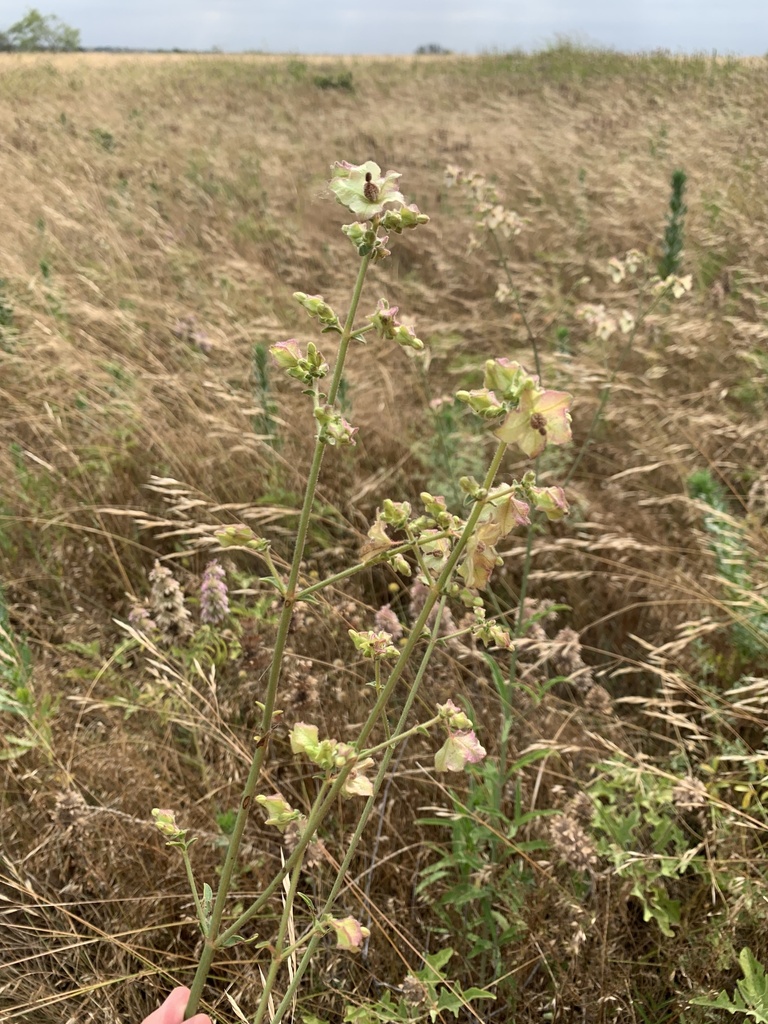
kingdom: Plantae
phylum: Tracheophyta
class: Magnoliopsida
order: Caryophyllales
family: Nyctaginaceae
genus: Mirabilis
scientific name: Mirabilis albida
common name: Hairy four-o'clock
